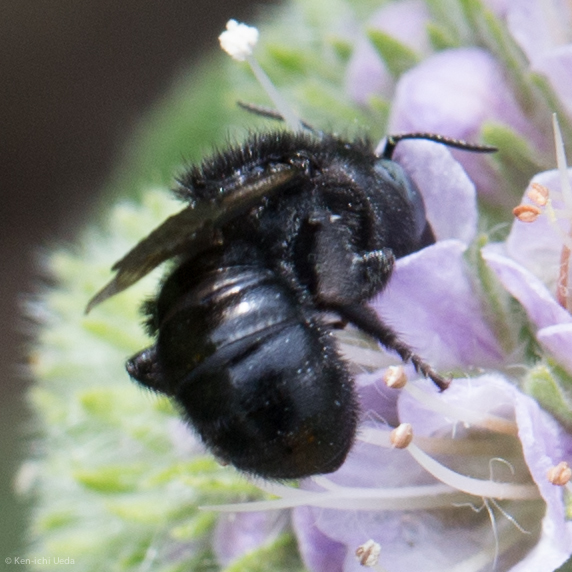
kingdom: Animalia
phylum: Arthropoda
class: Insecta
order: Hymenoptera
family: Megachilidae
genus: Hoplitis
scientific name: Hoplitis albifrons
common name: White-fronted small-mason
